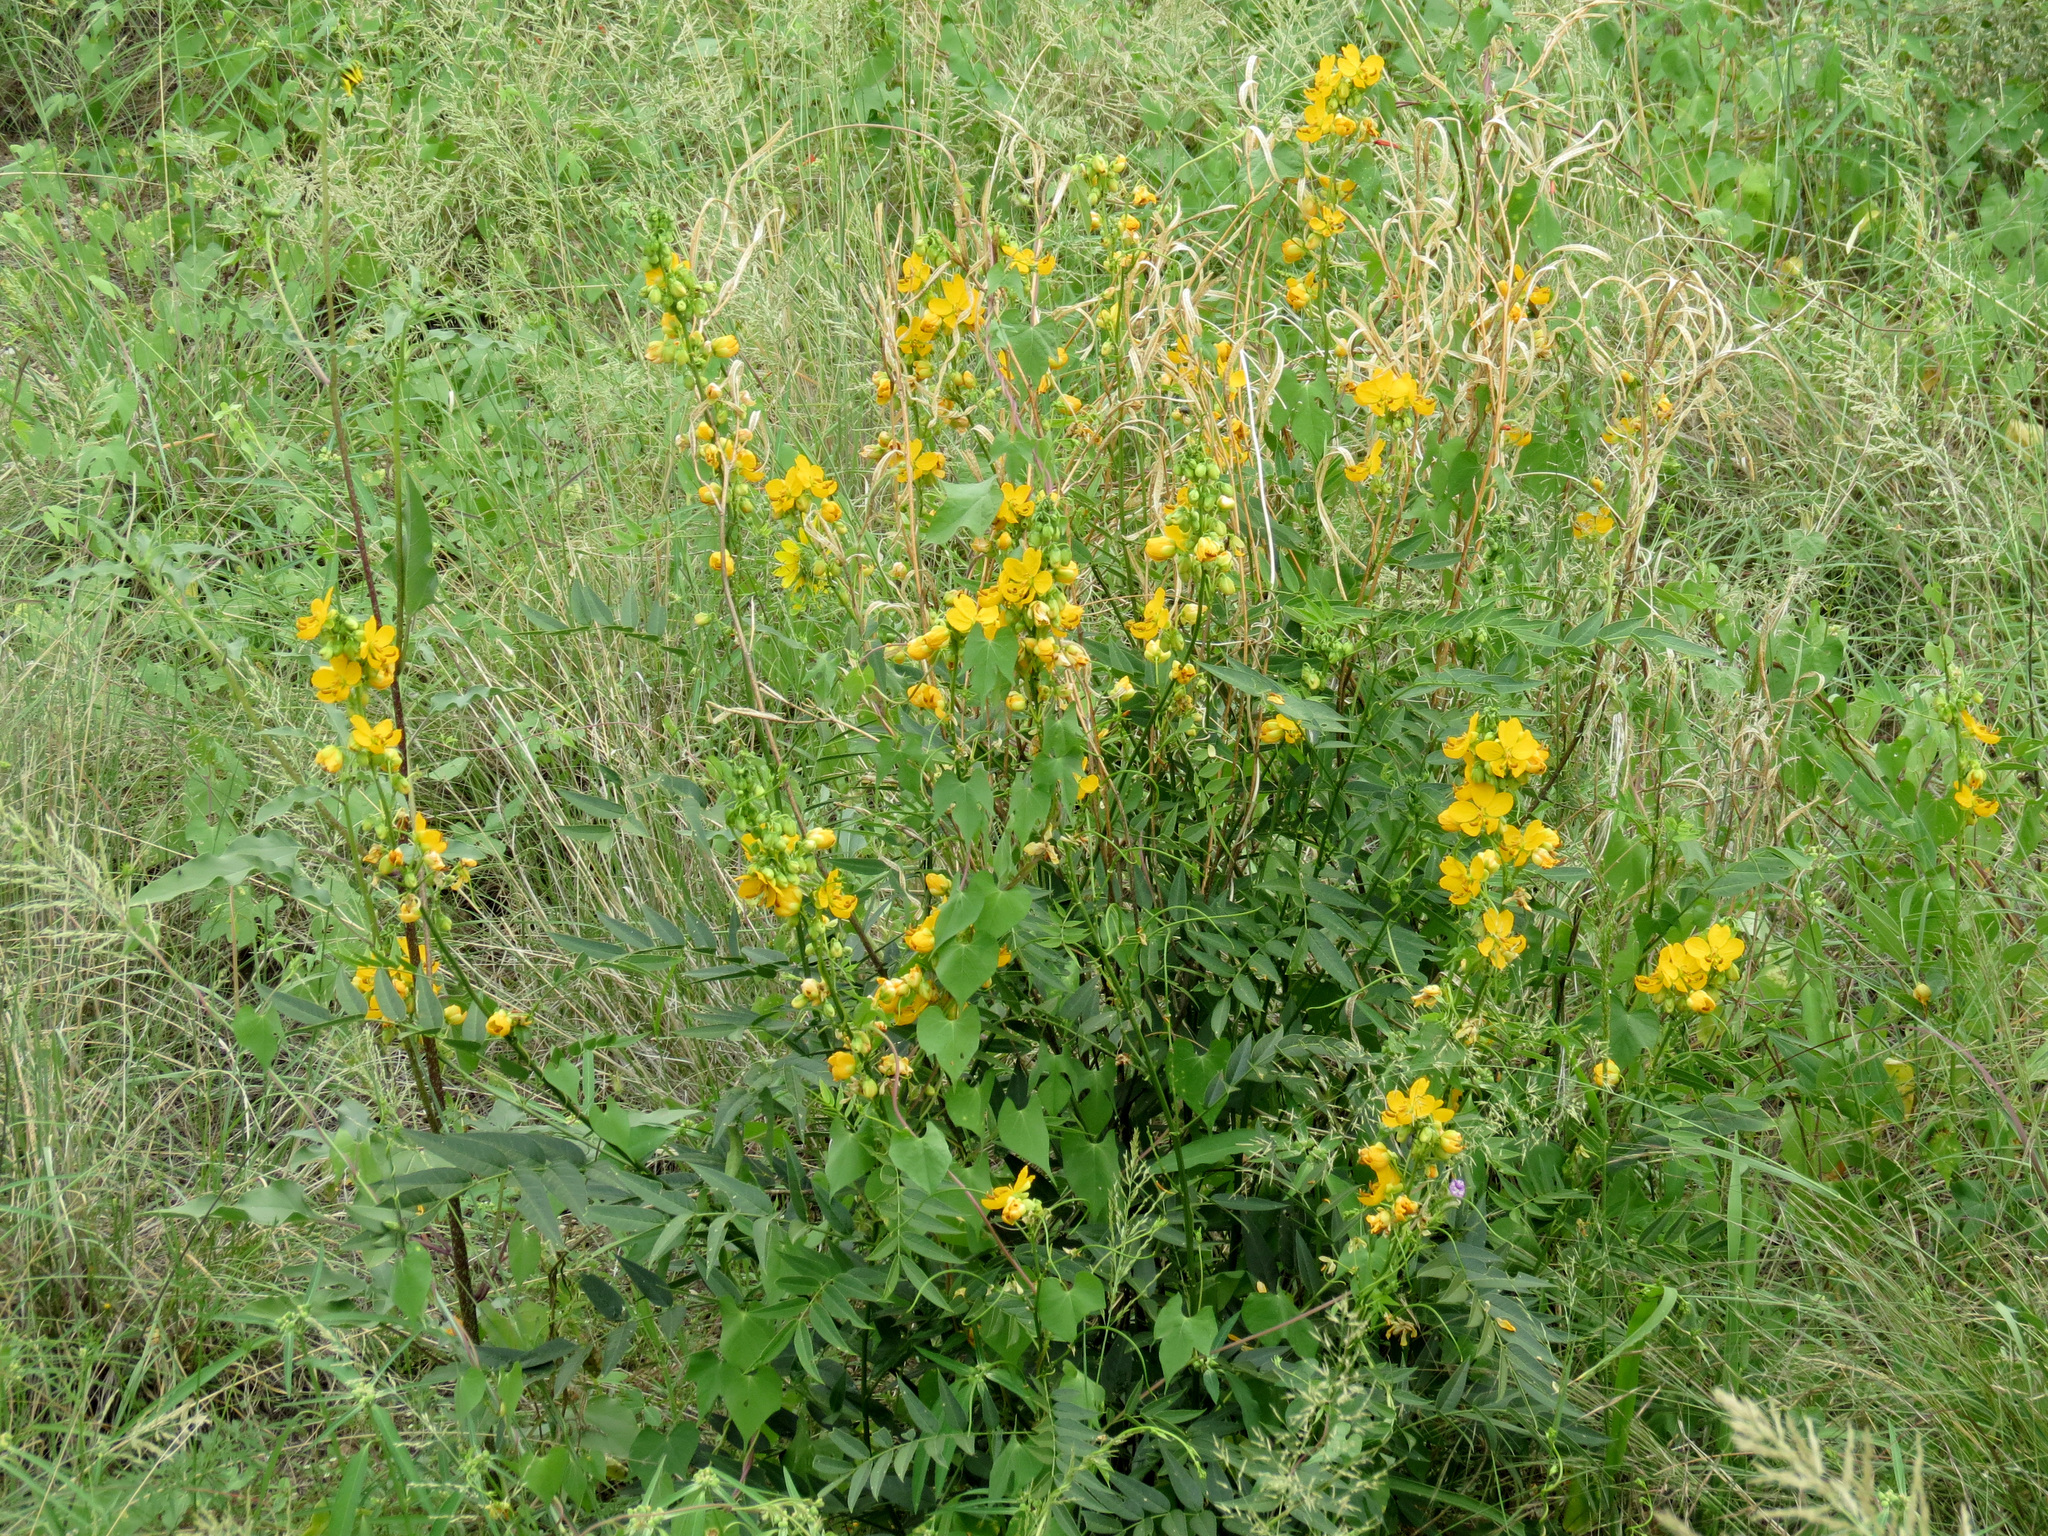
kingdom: Plantae
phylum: Tracheophyta
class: Magnoliopsida
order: Fabales
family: Fabaceae
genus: Senna
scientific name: Senna hirsuta
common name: Woolly senna
